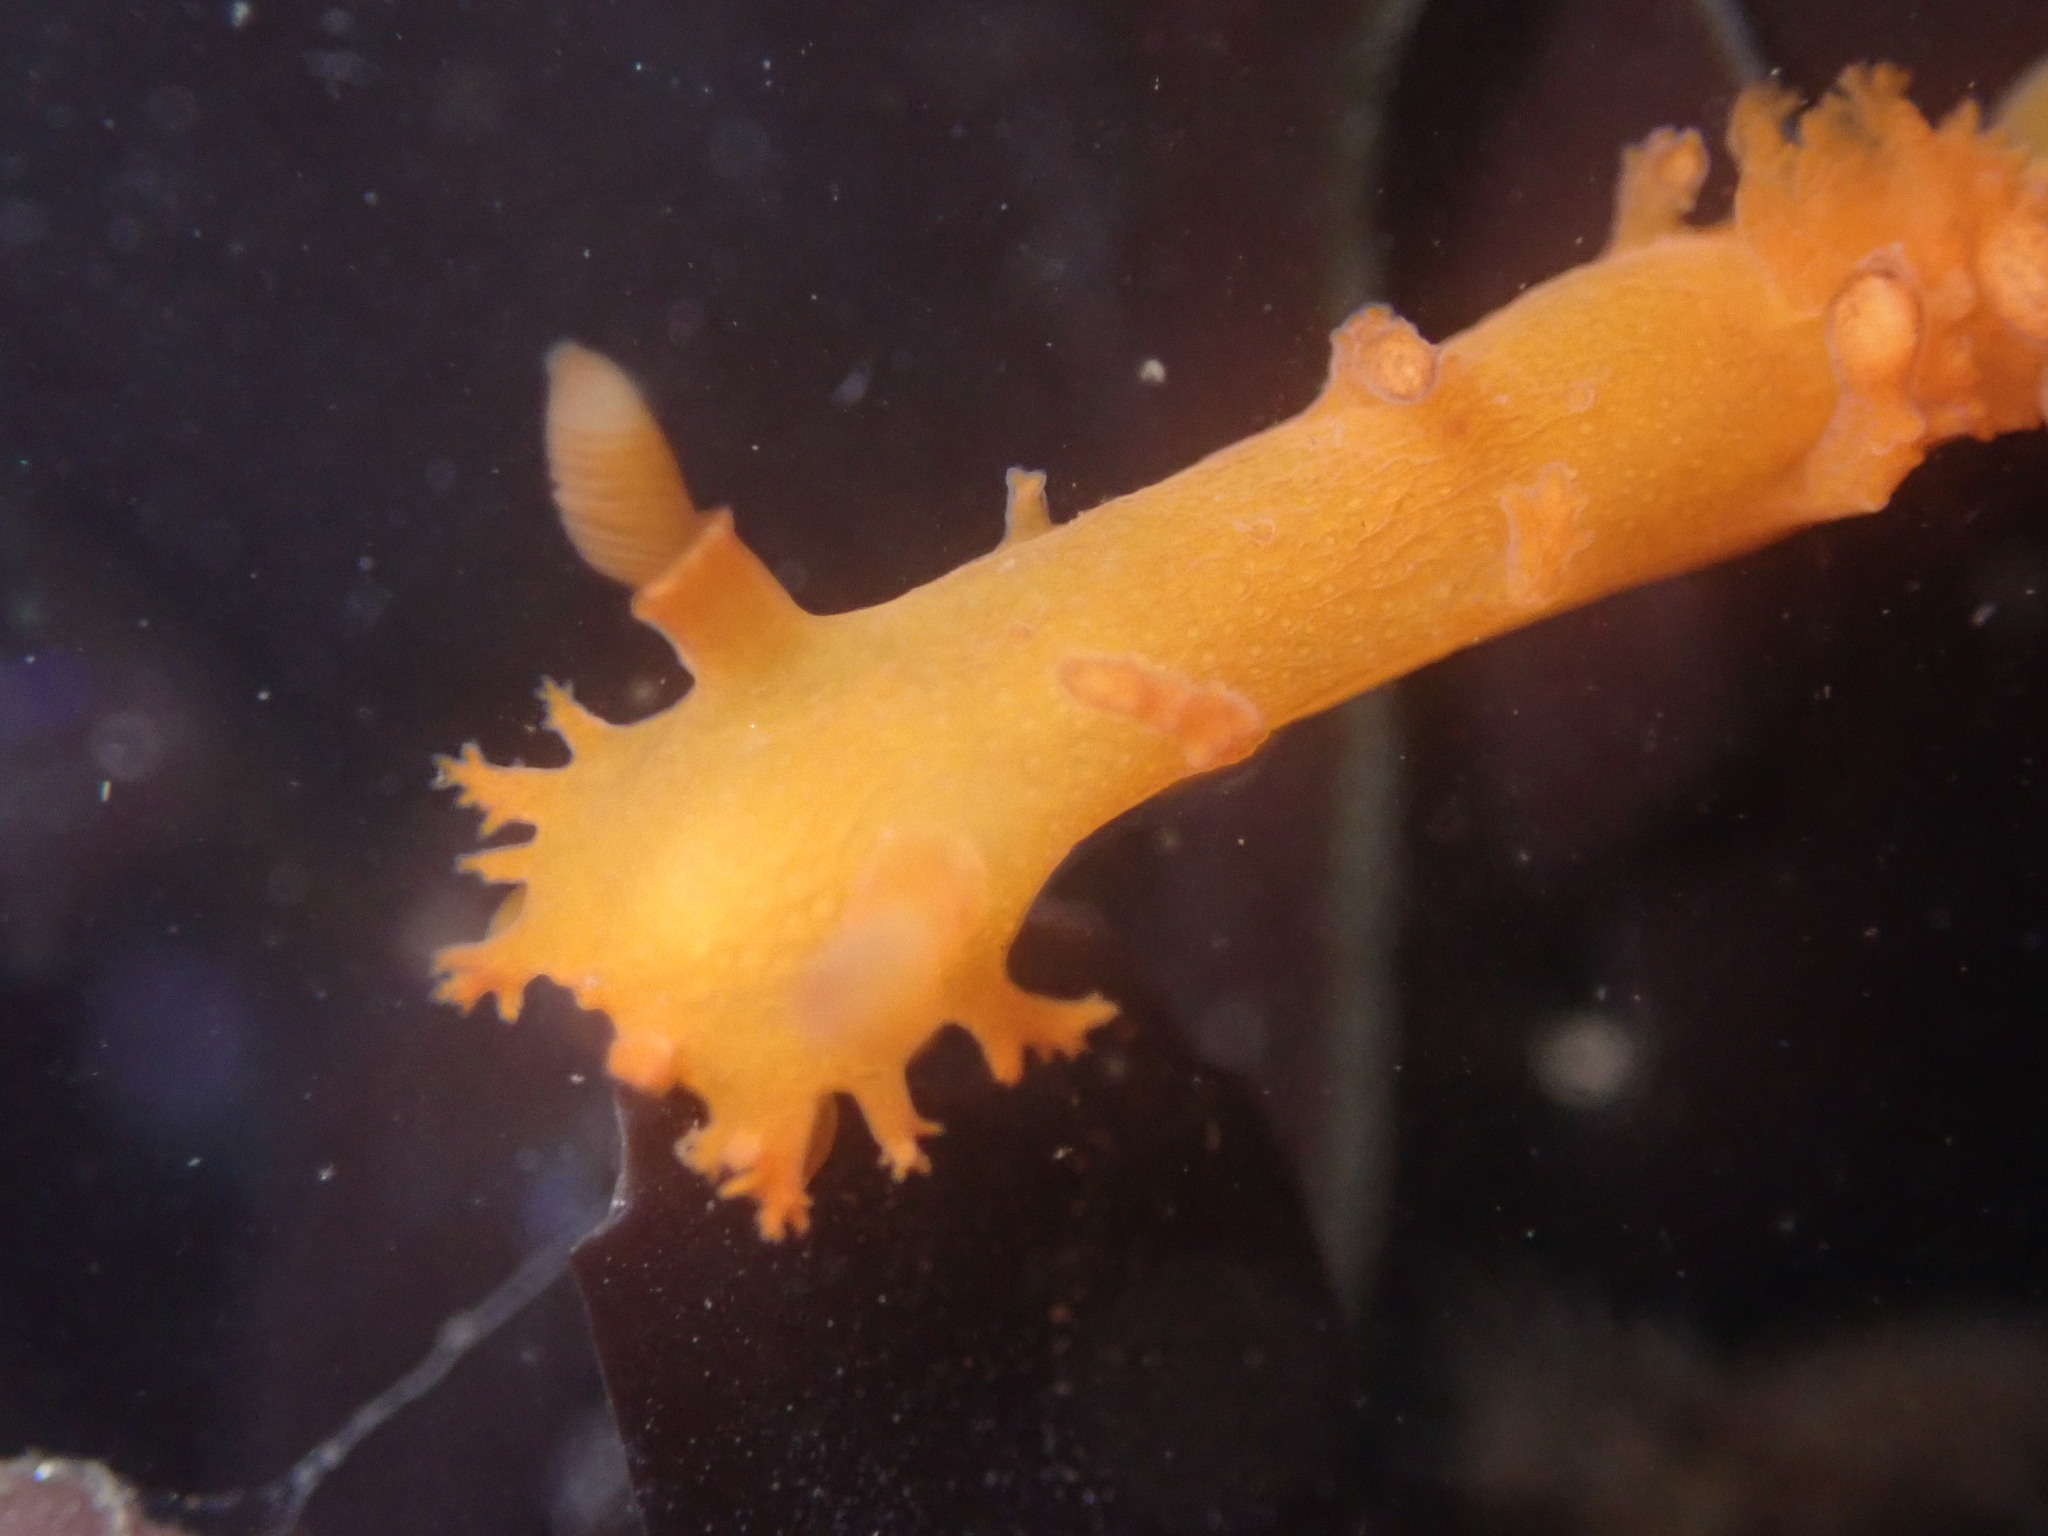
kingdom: Animalia
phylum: Mollusca
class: Gastropoda
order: Nudibranchia
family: Polyceridae
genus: Triopha
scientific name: Triopha maculata
